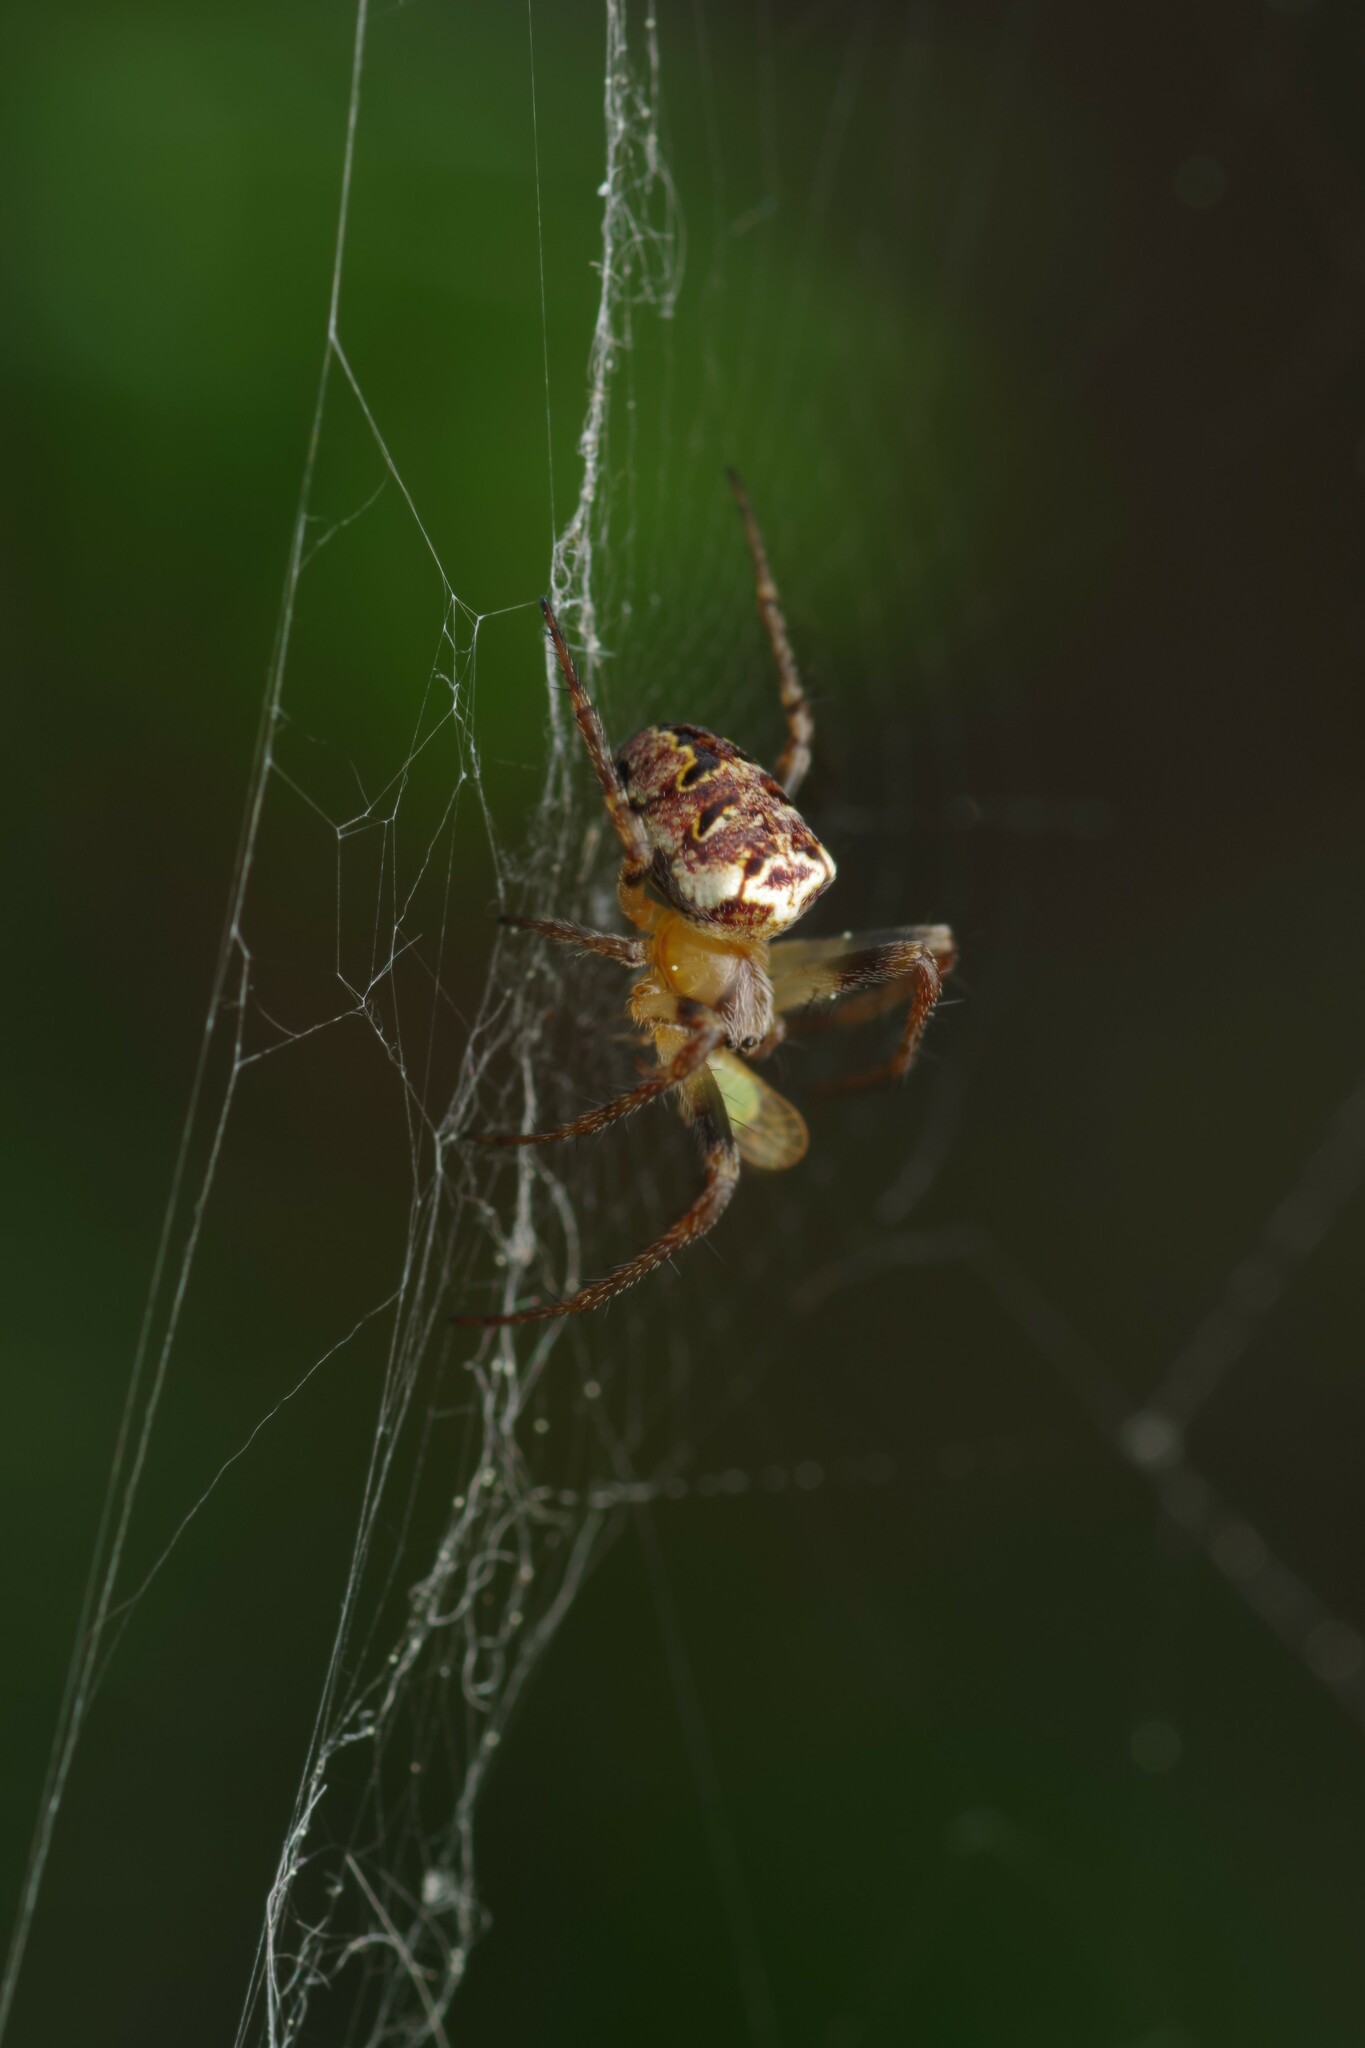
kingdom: Animalia
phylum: Arthropoda
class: Arachnida
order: Araneae
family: Araneidae
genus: Zilla
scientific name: Zilla diodia
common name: Zilla diodia
